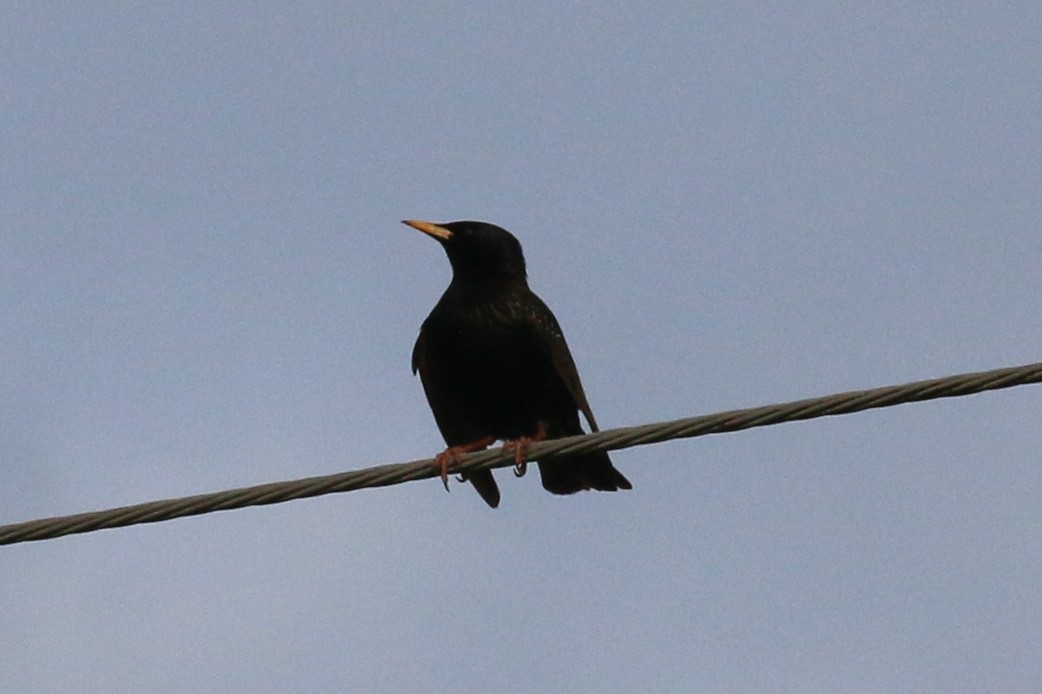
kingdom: Animalia
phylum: Chordata
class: Aves
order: Passeriformes
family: Sturnidae
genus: Sturnus
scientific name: Sturnus vulgaris
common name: Common starling
